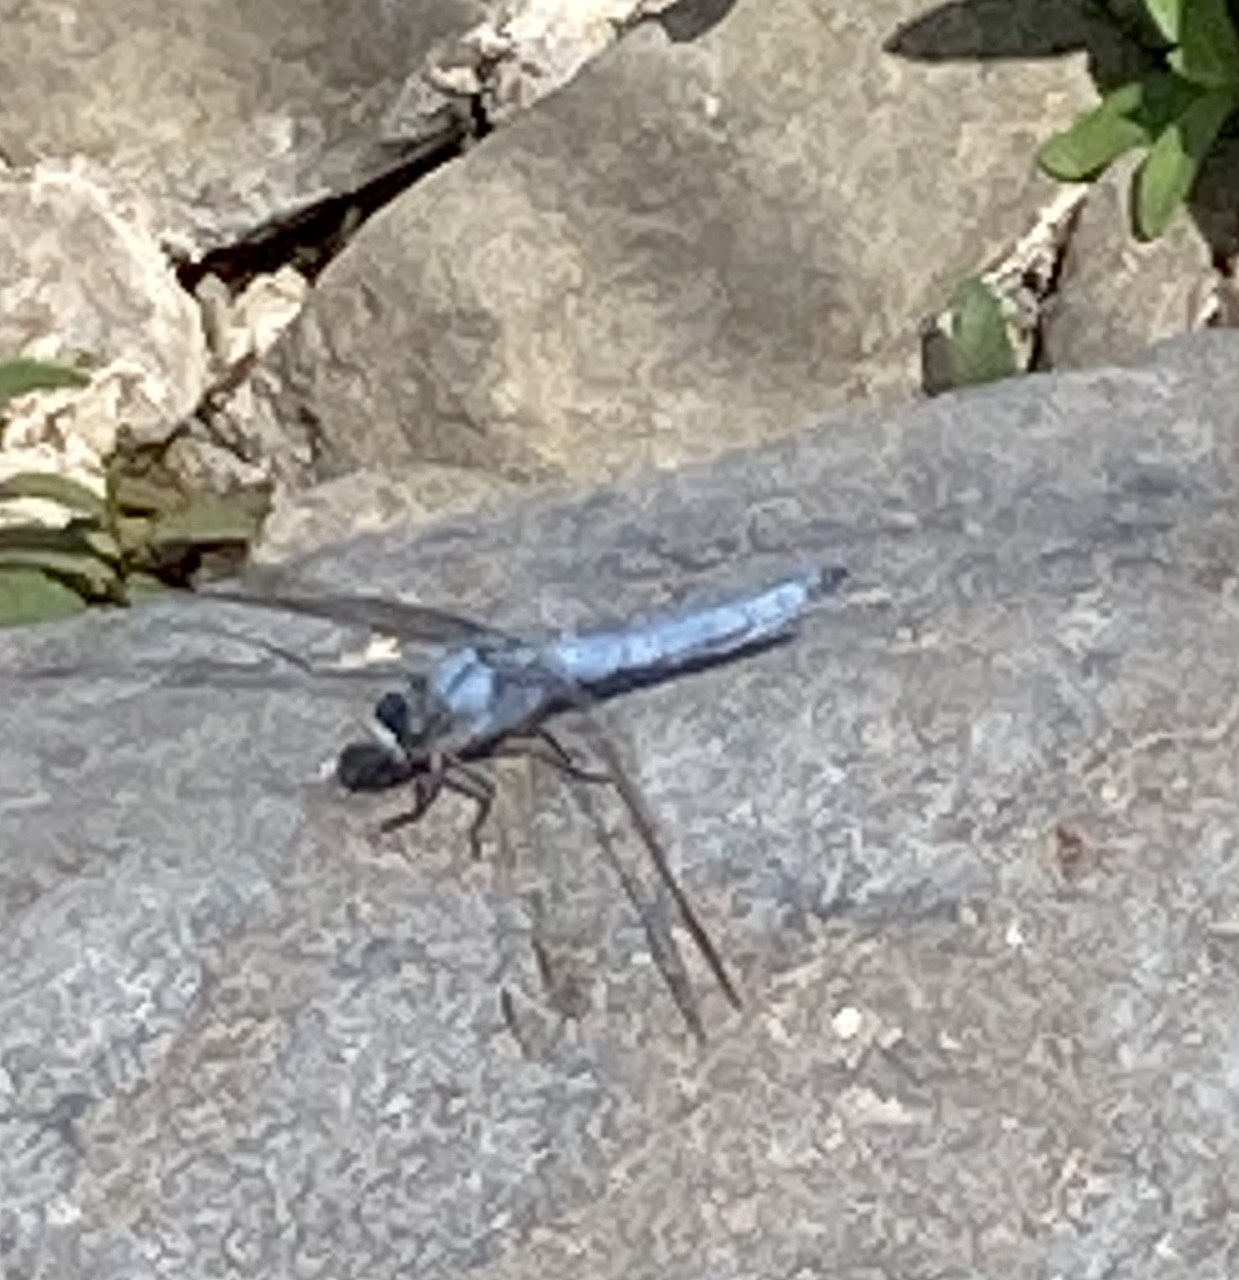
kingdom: Animalia
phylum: Arthropoda
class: Insecta
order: Odonata
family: Libellulidae
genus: Orthetrum
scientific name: Orthetrum brunneum
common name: Southern skimmer
